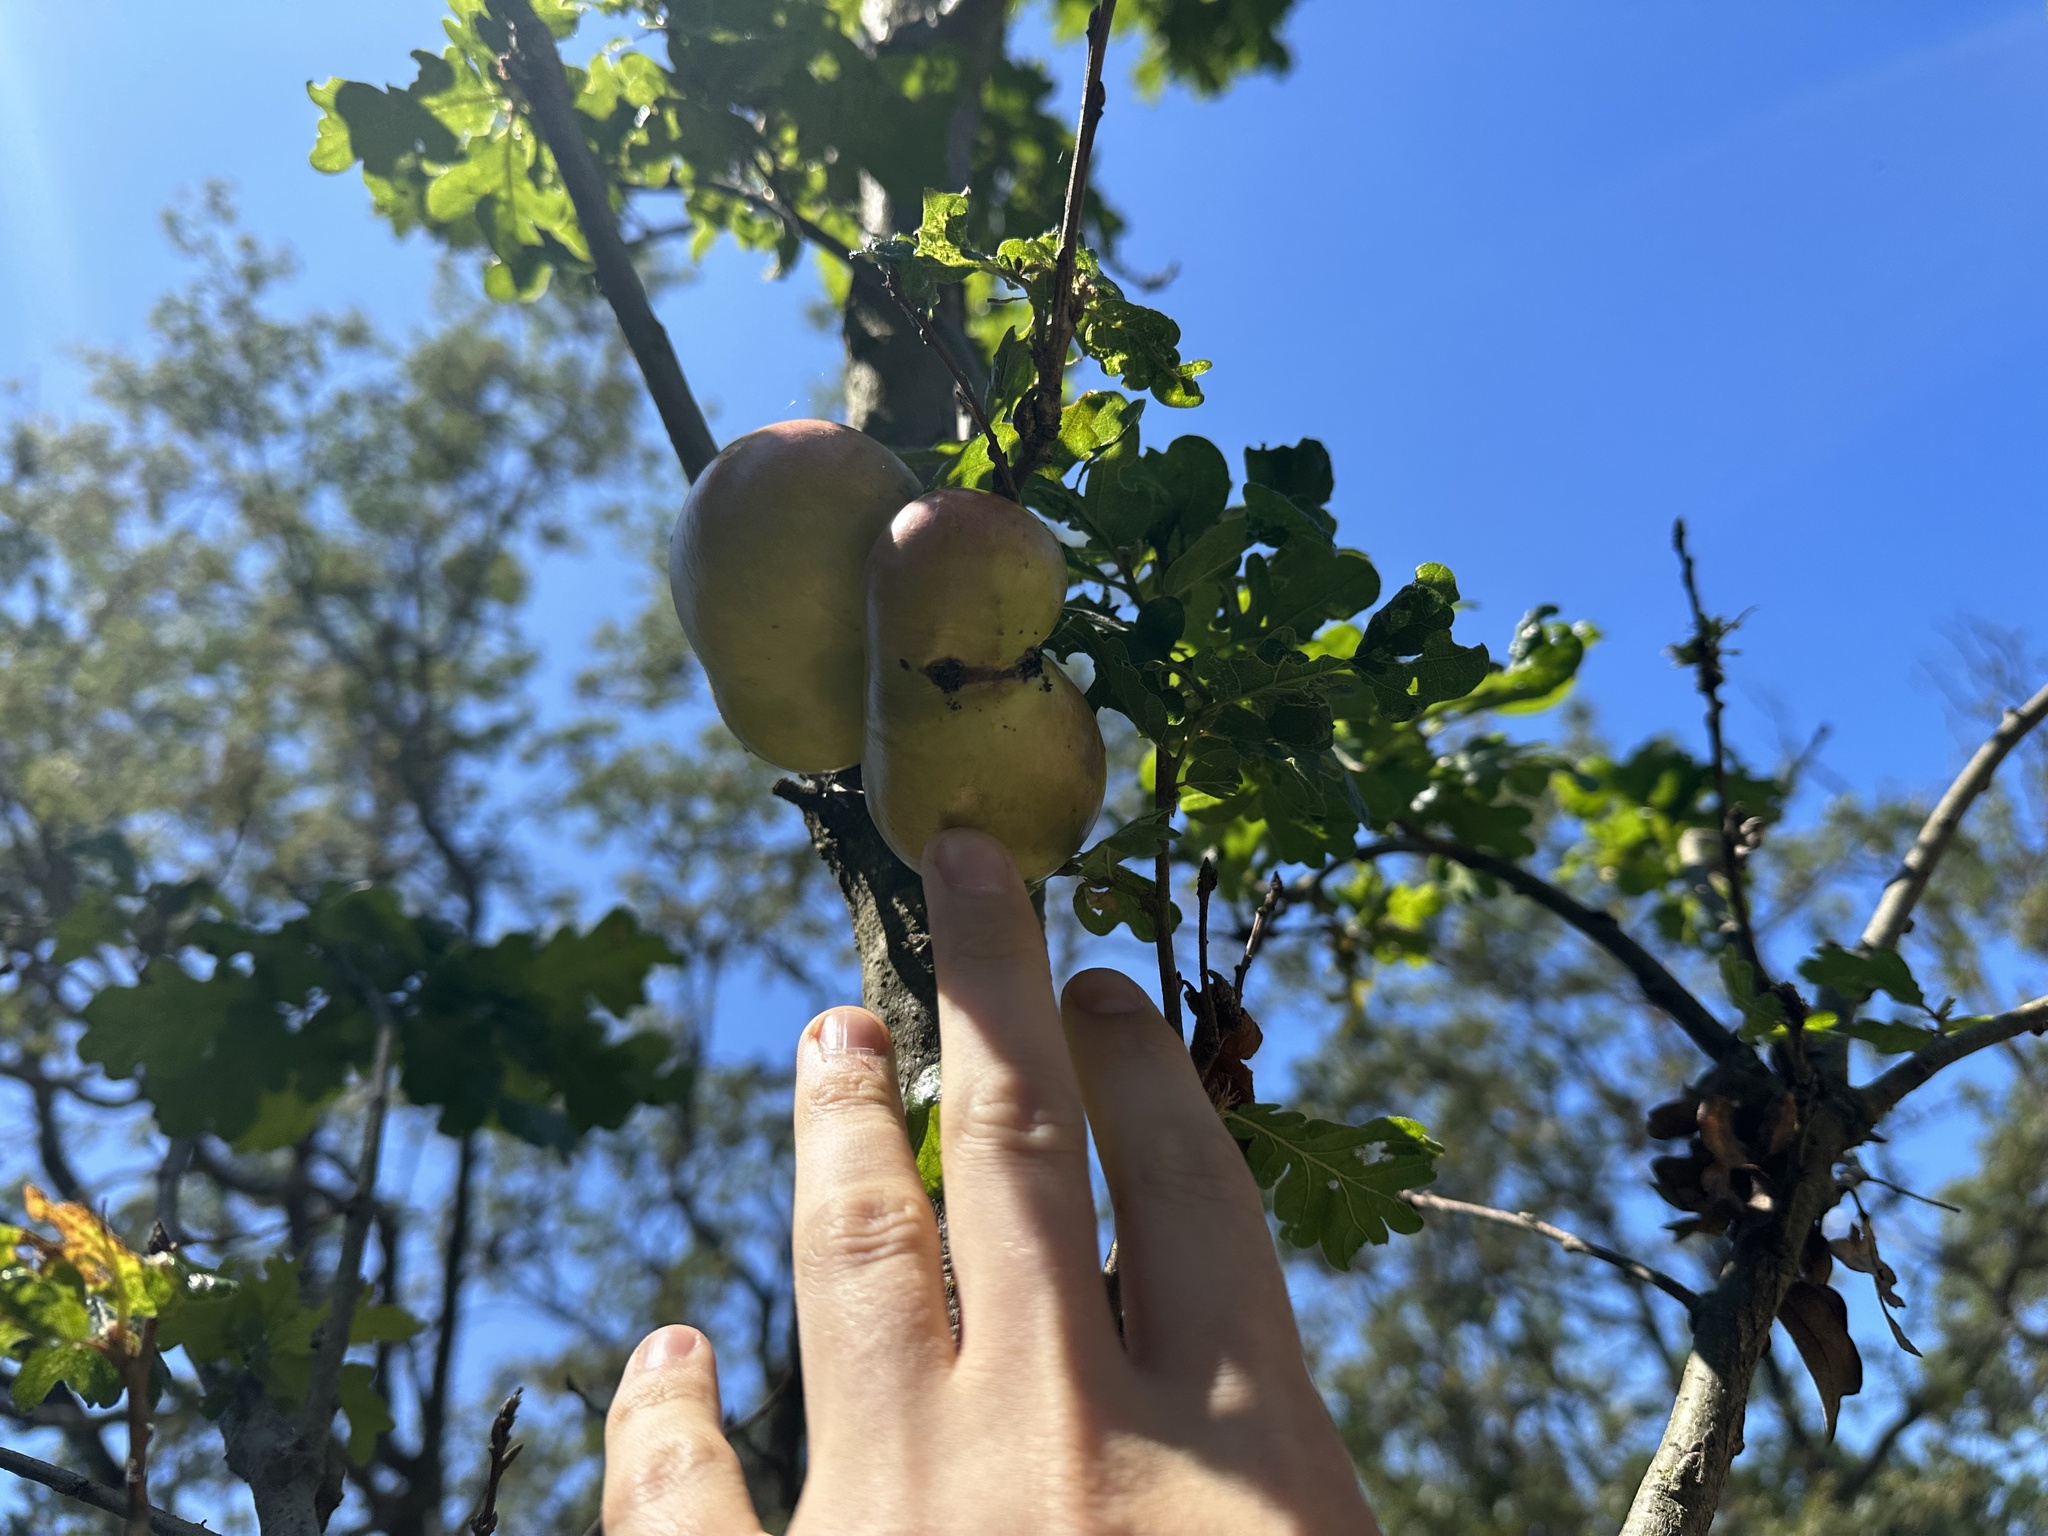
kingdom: Animalia
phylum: Arthropoda
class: Insecta
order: Hymenoptera
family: Cynipidae
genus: Andricus
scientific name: Andricus quercuscalifornicus
